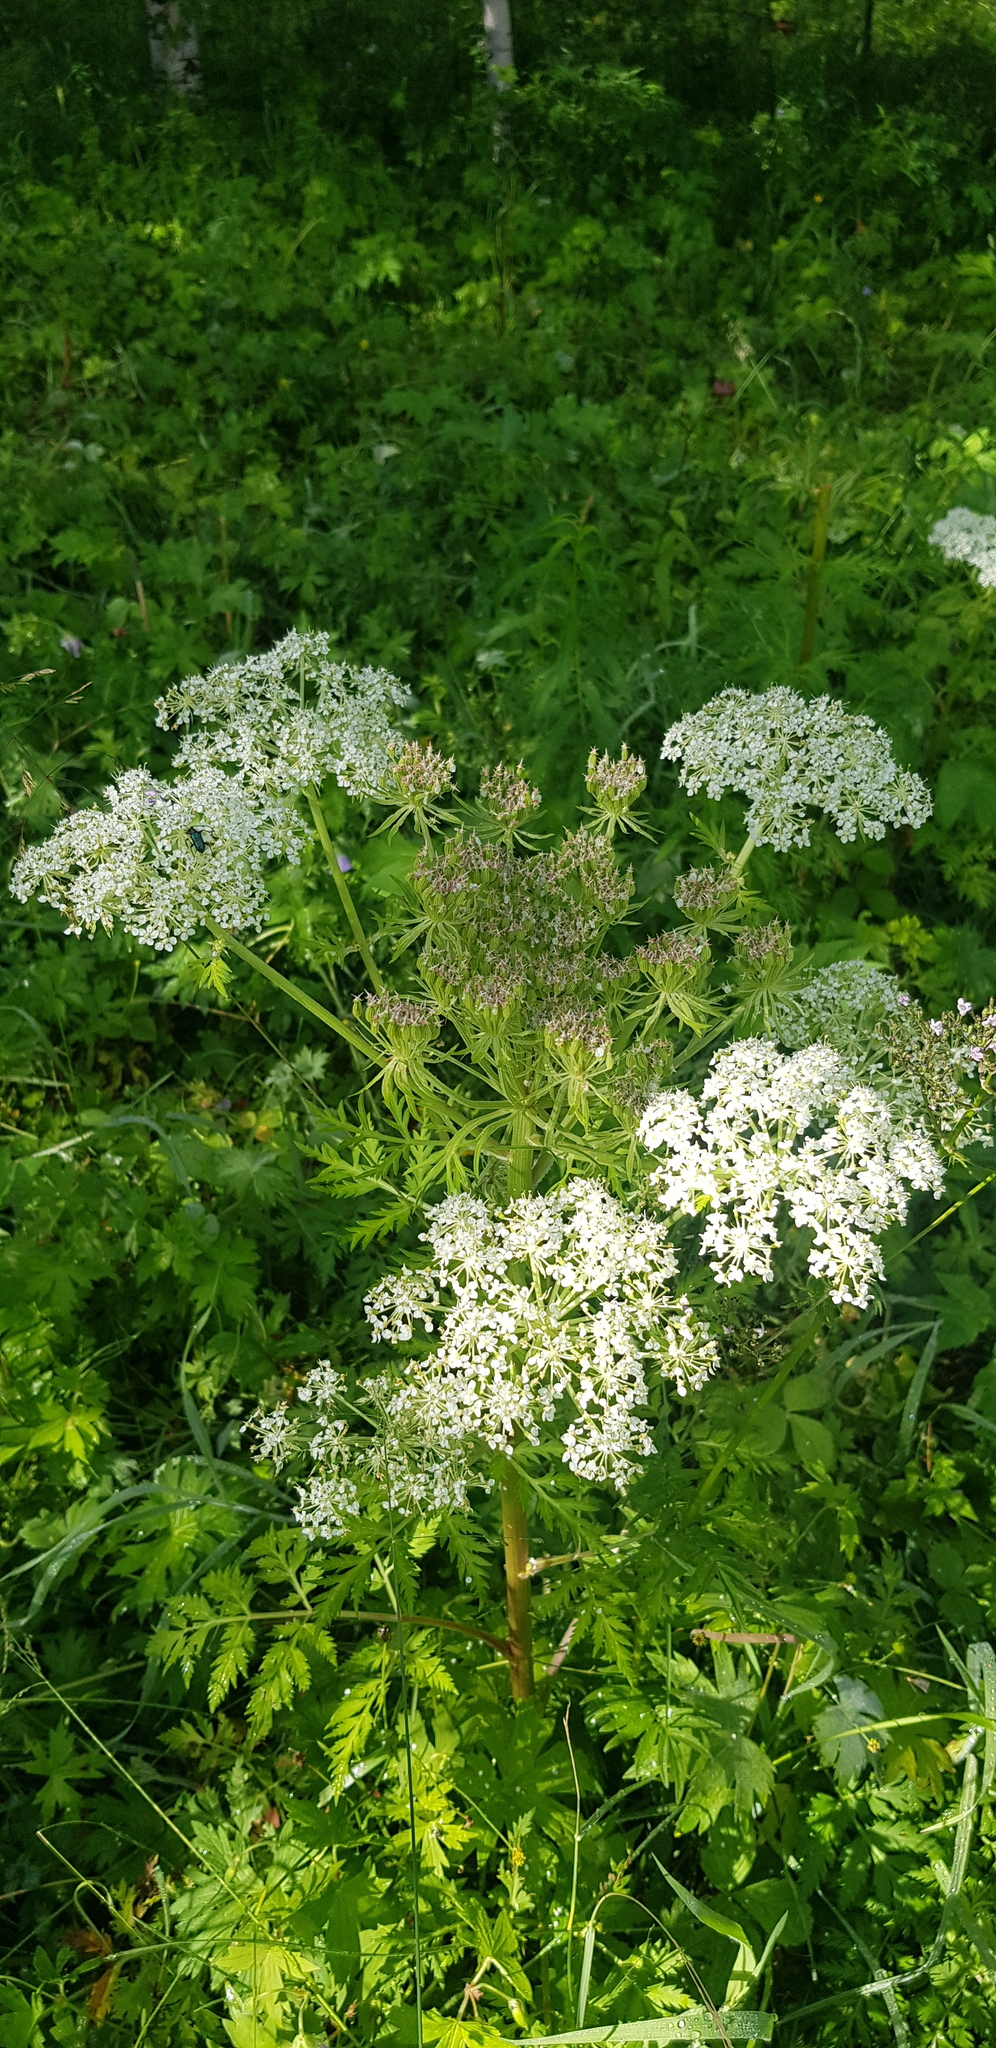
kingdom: Plantae
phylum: Tracheophyta
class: Magnoliopsida
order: Apiales
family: Apiaceae
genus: Pleurospermum
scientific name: Pleurospermum uralense
